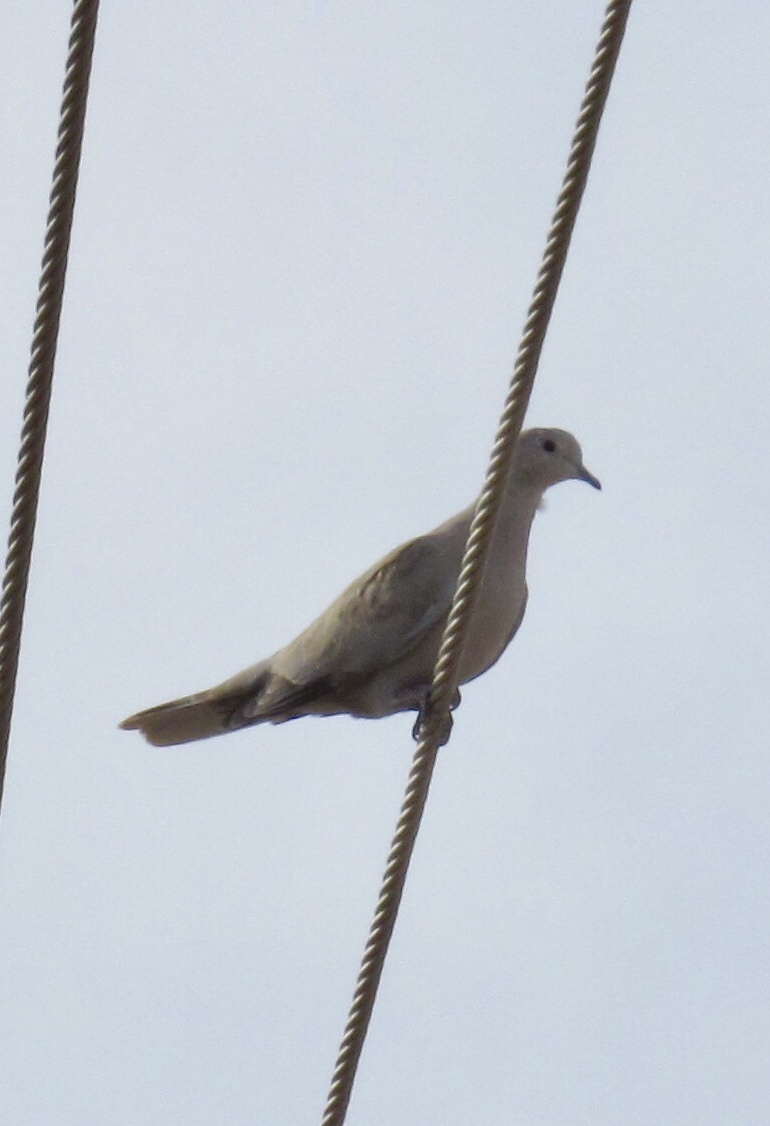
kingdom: Animalia
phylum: Chordata
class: Aves
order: Columbiformes
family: Columbidae
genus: Streptopelia
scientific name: Streptopelia decaocto
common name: Eurasian collared dove
